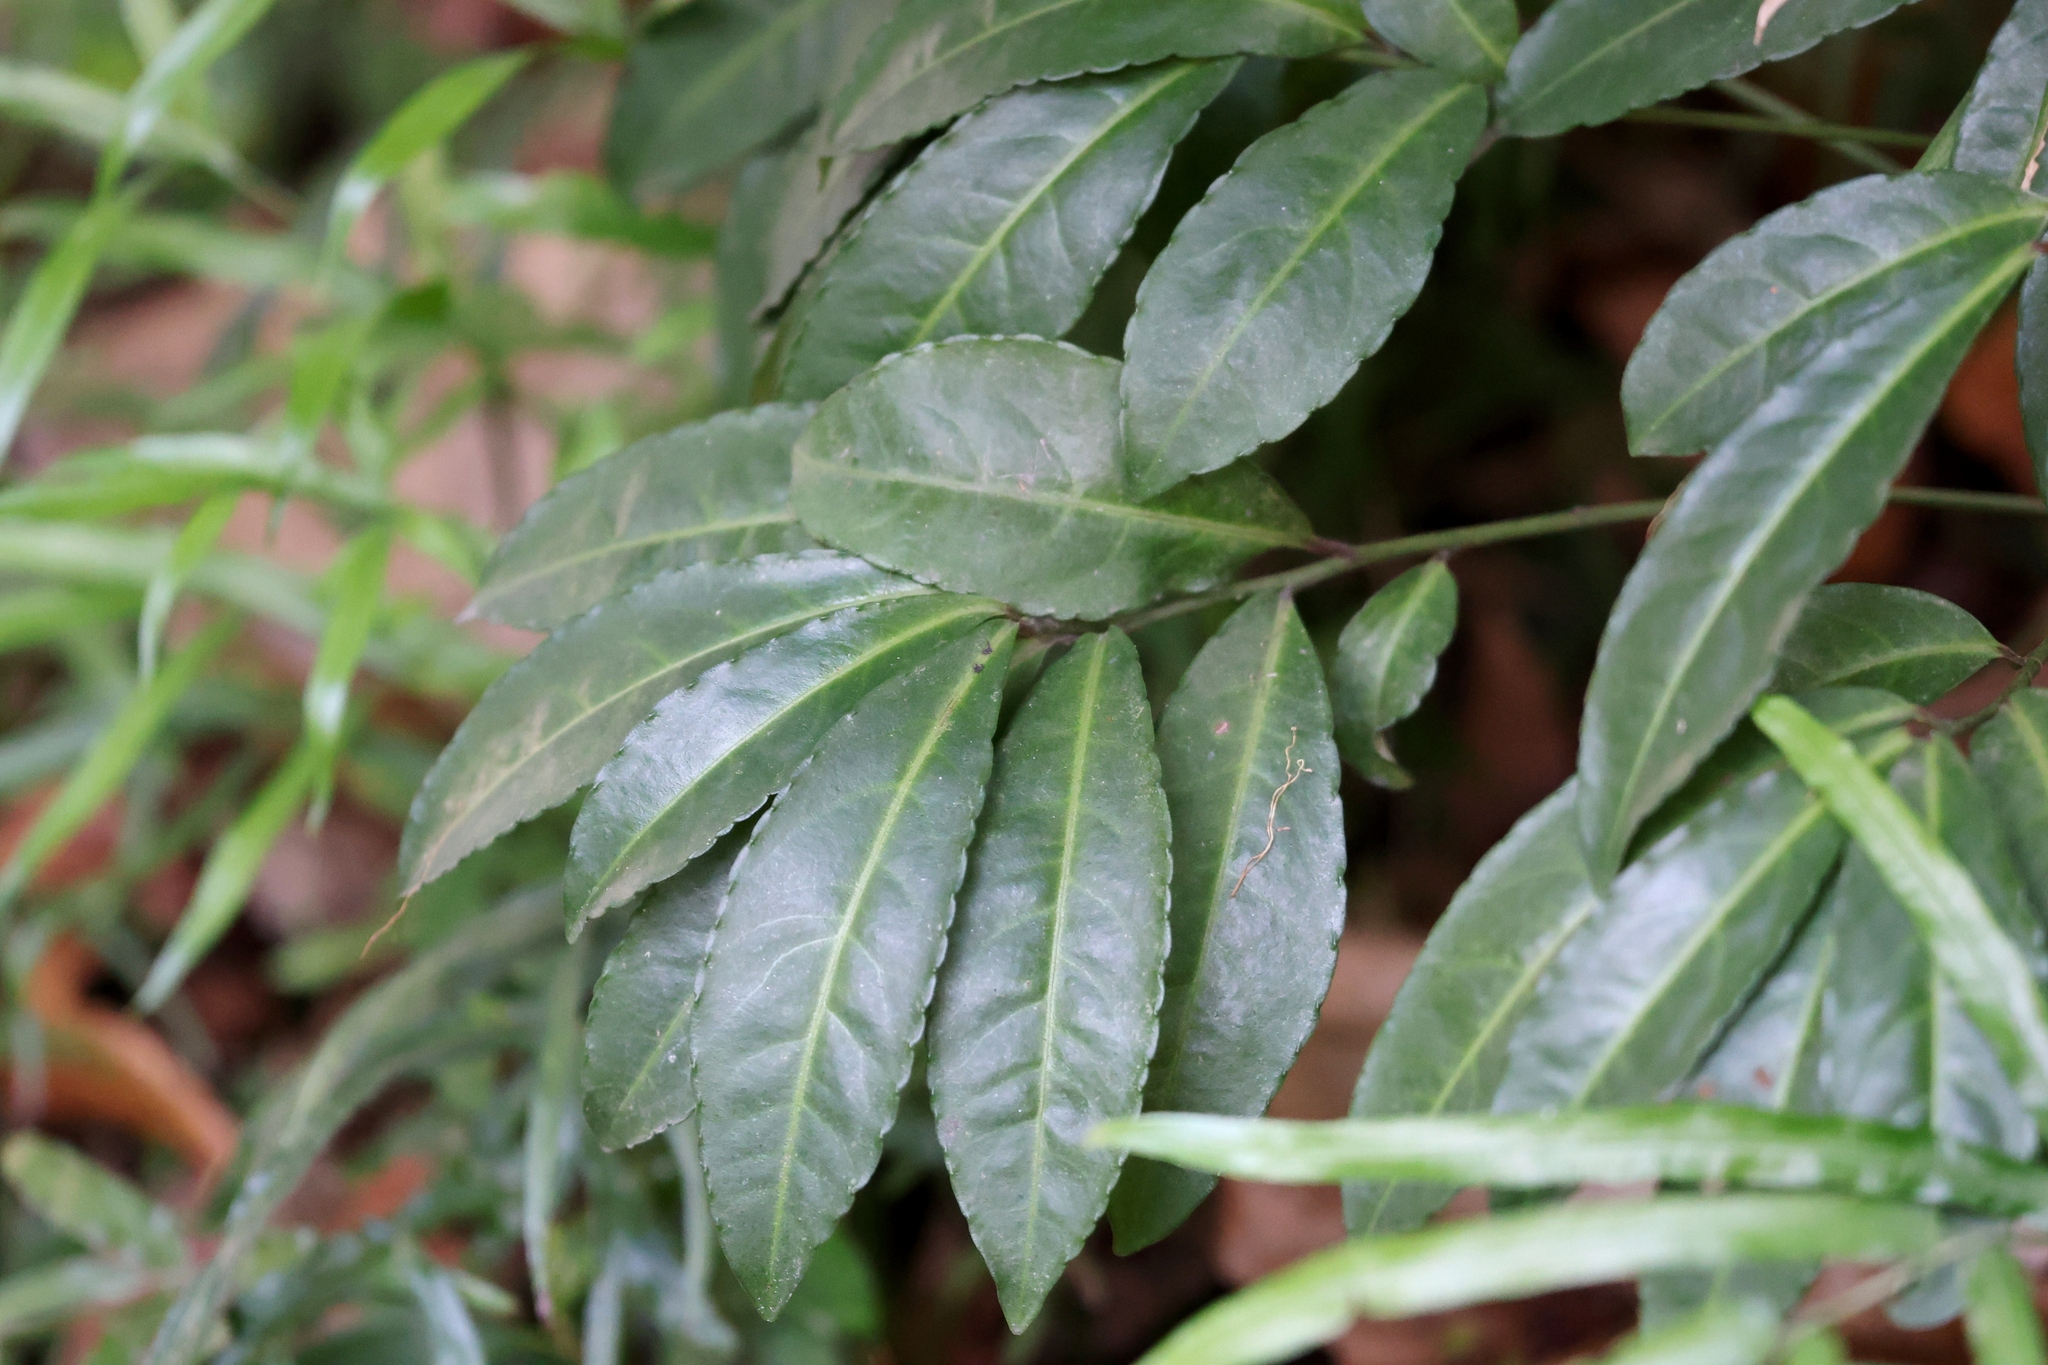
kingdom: Plantae
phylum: Tracheophyta
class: Magnoliopsida
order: Ericales
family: Primulaceae
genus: Ardisia
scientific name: Ardisia crenata
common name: Hen's eyes
